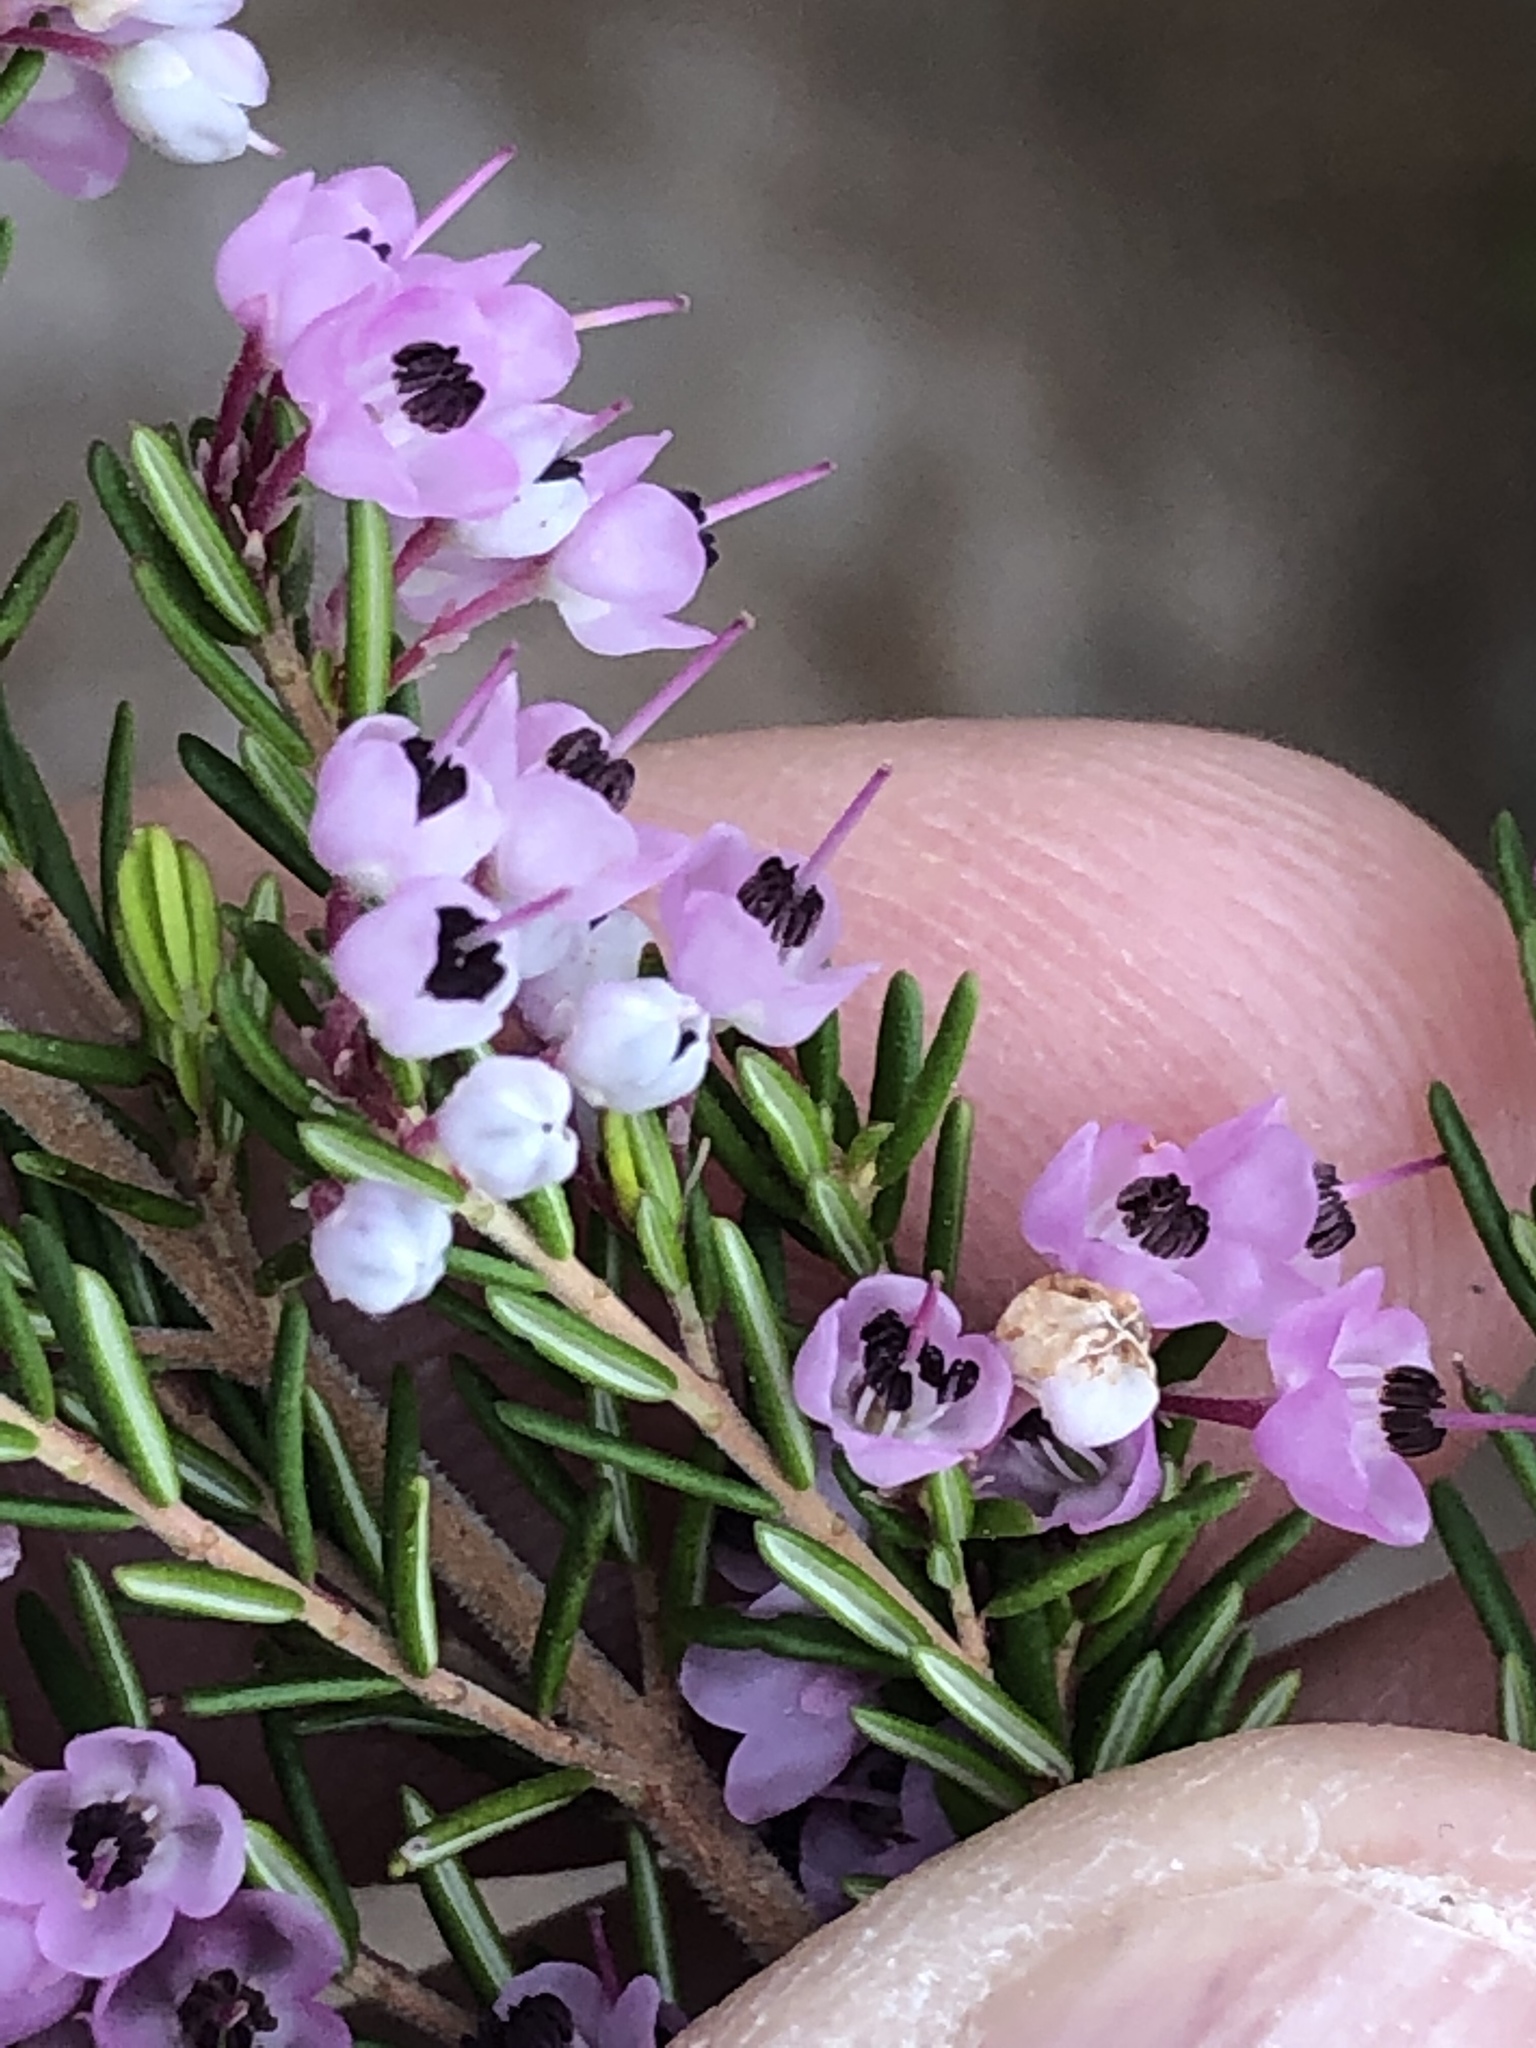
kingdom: Plantae
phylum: Tracheophyta
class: Magnoliopsida
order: Ericales
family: Ericaceae
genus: Erica
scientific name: Erica canaliculata
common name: Hairy grey heather
